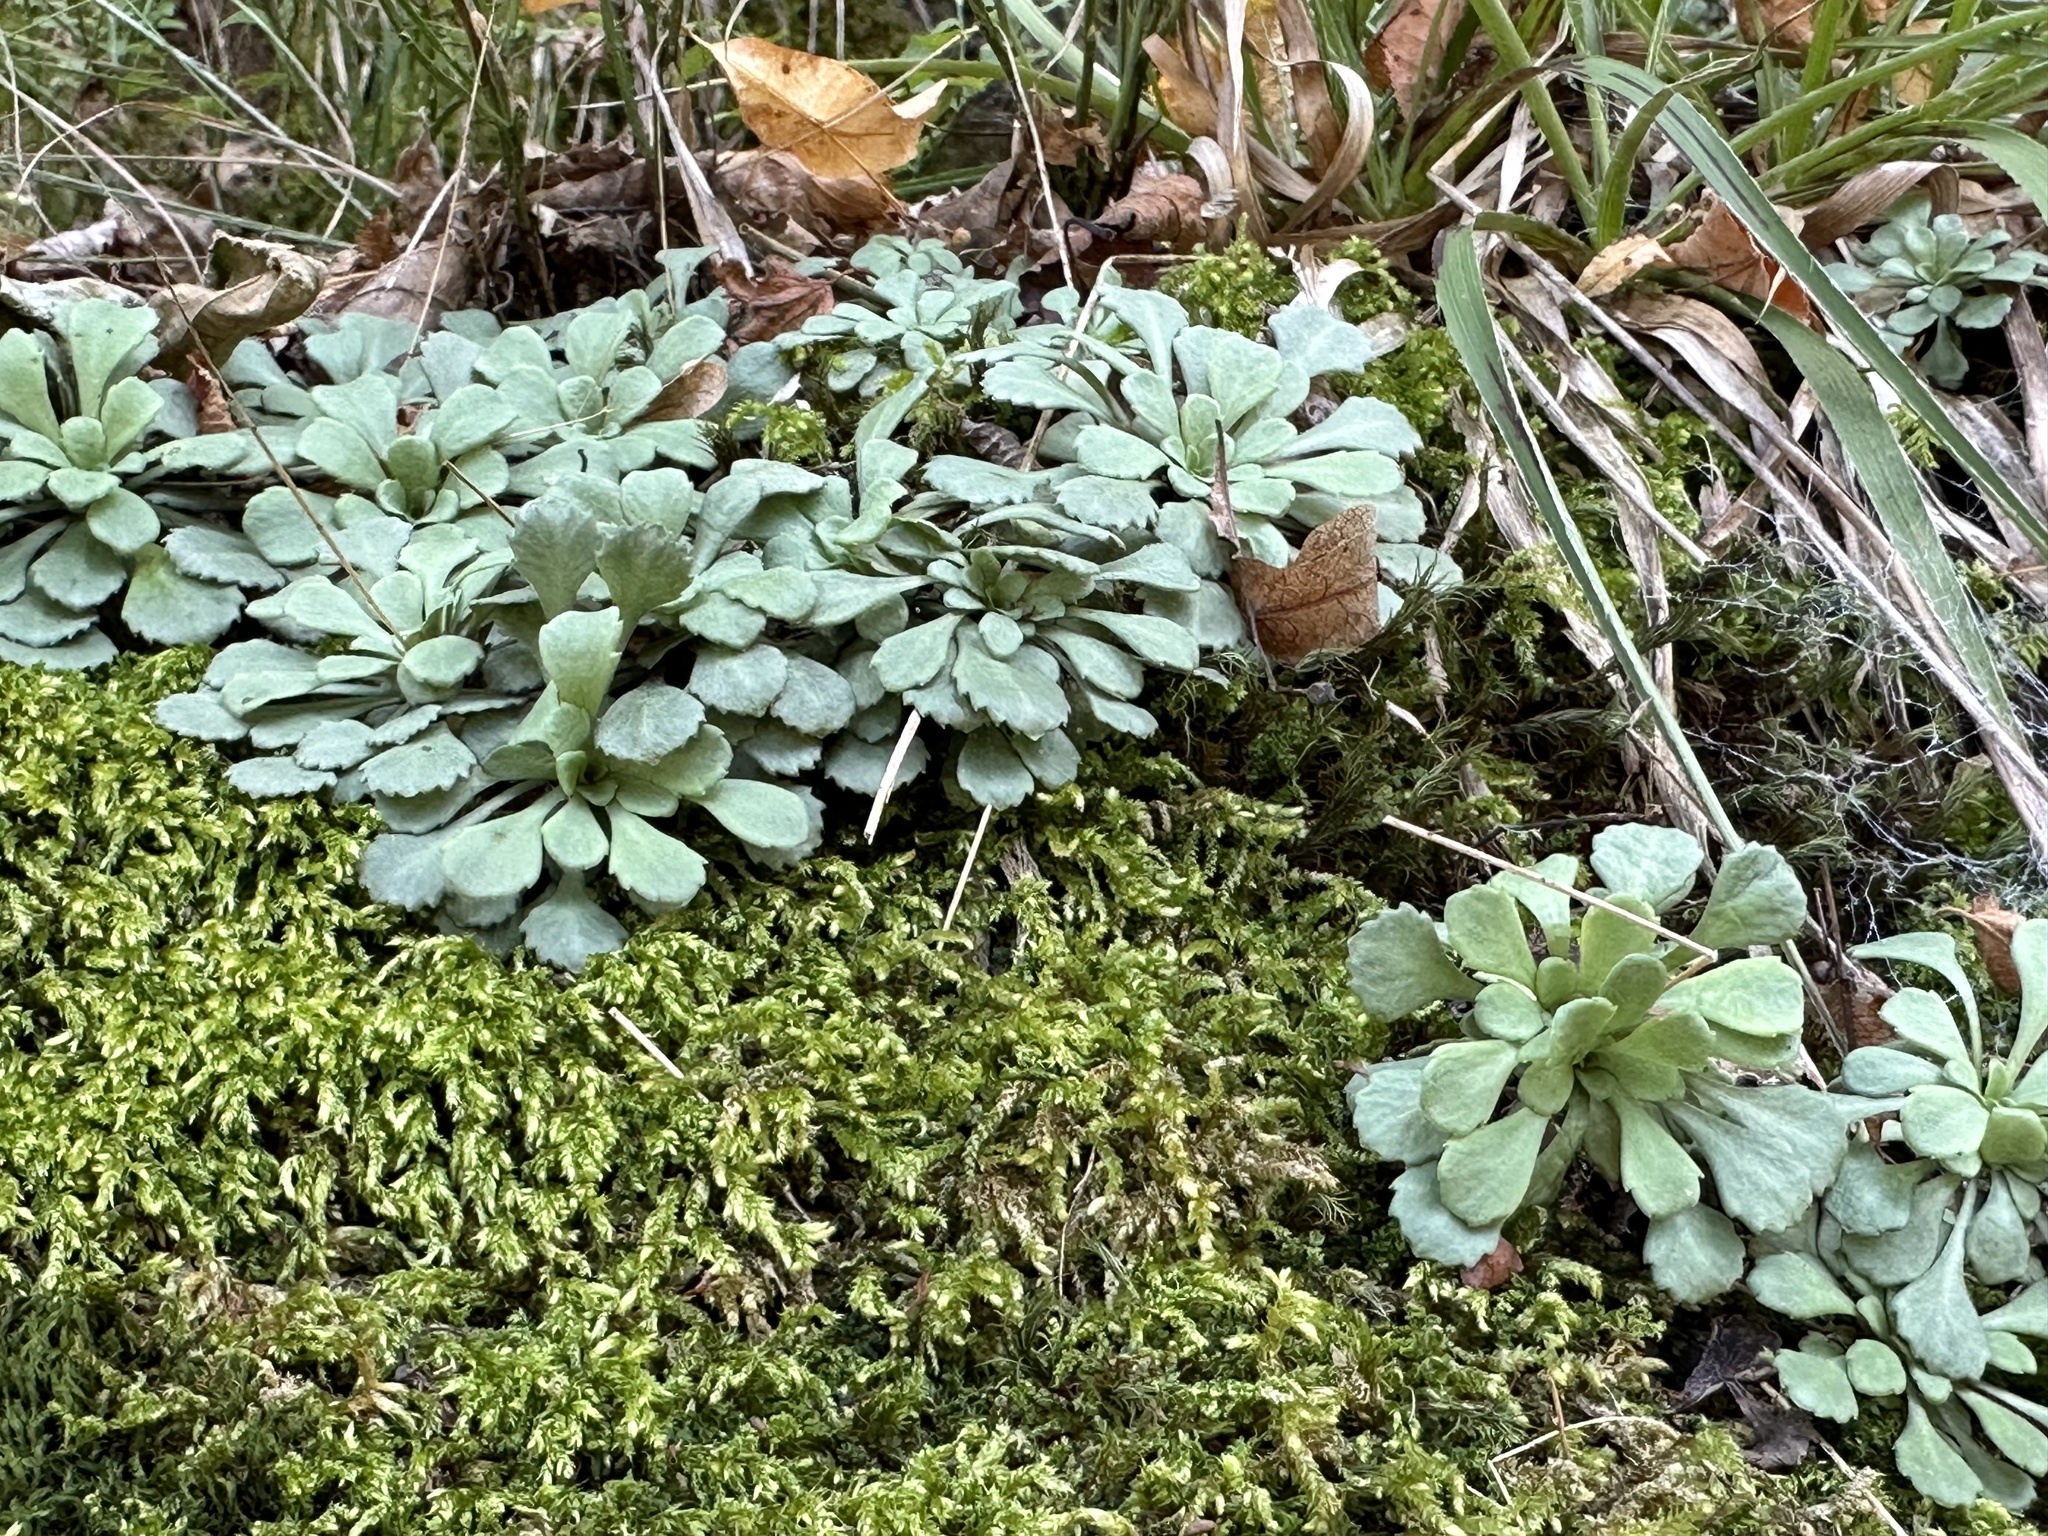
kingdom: Plantae
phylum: Tracheophyta
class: Magnoliopsida
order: Saxifragales
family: Saxifragaceae
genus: Saxifraga
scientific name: Saxifraga cuneifolia
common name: Lesser londonpride
